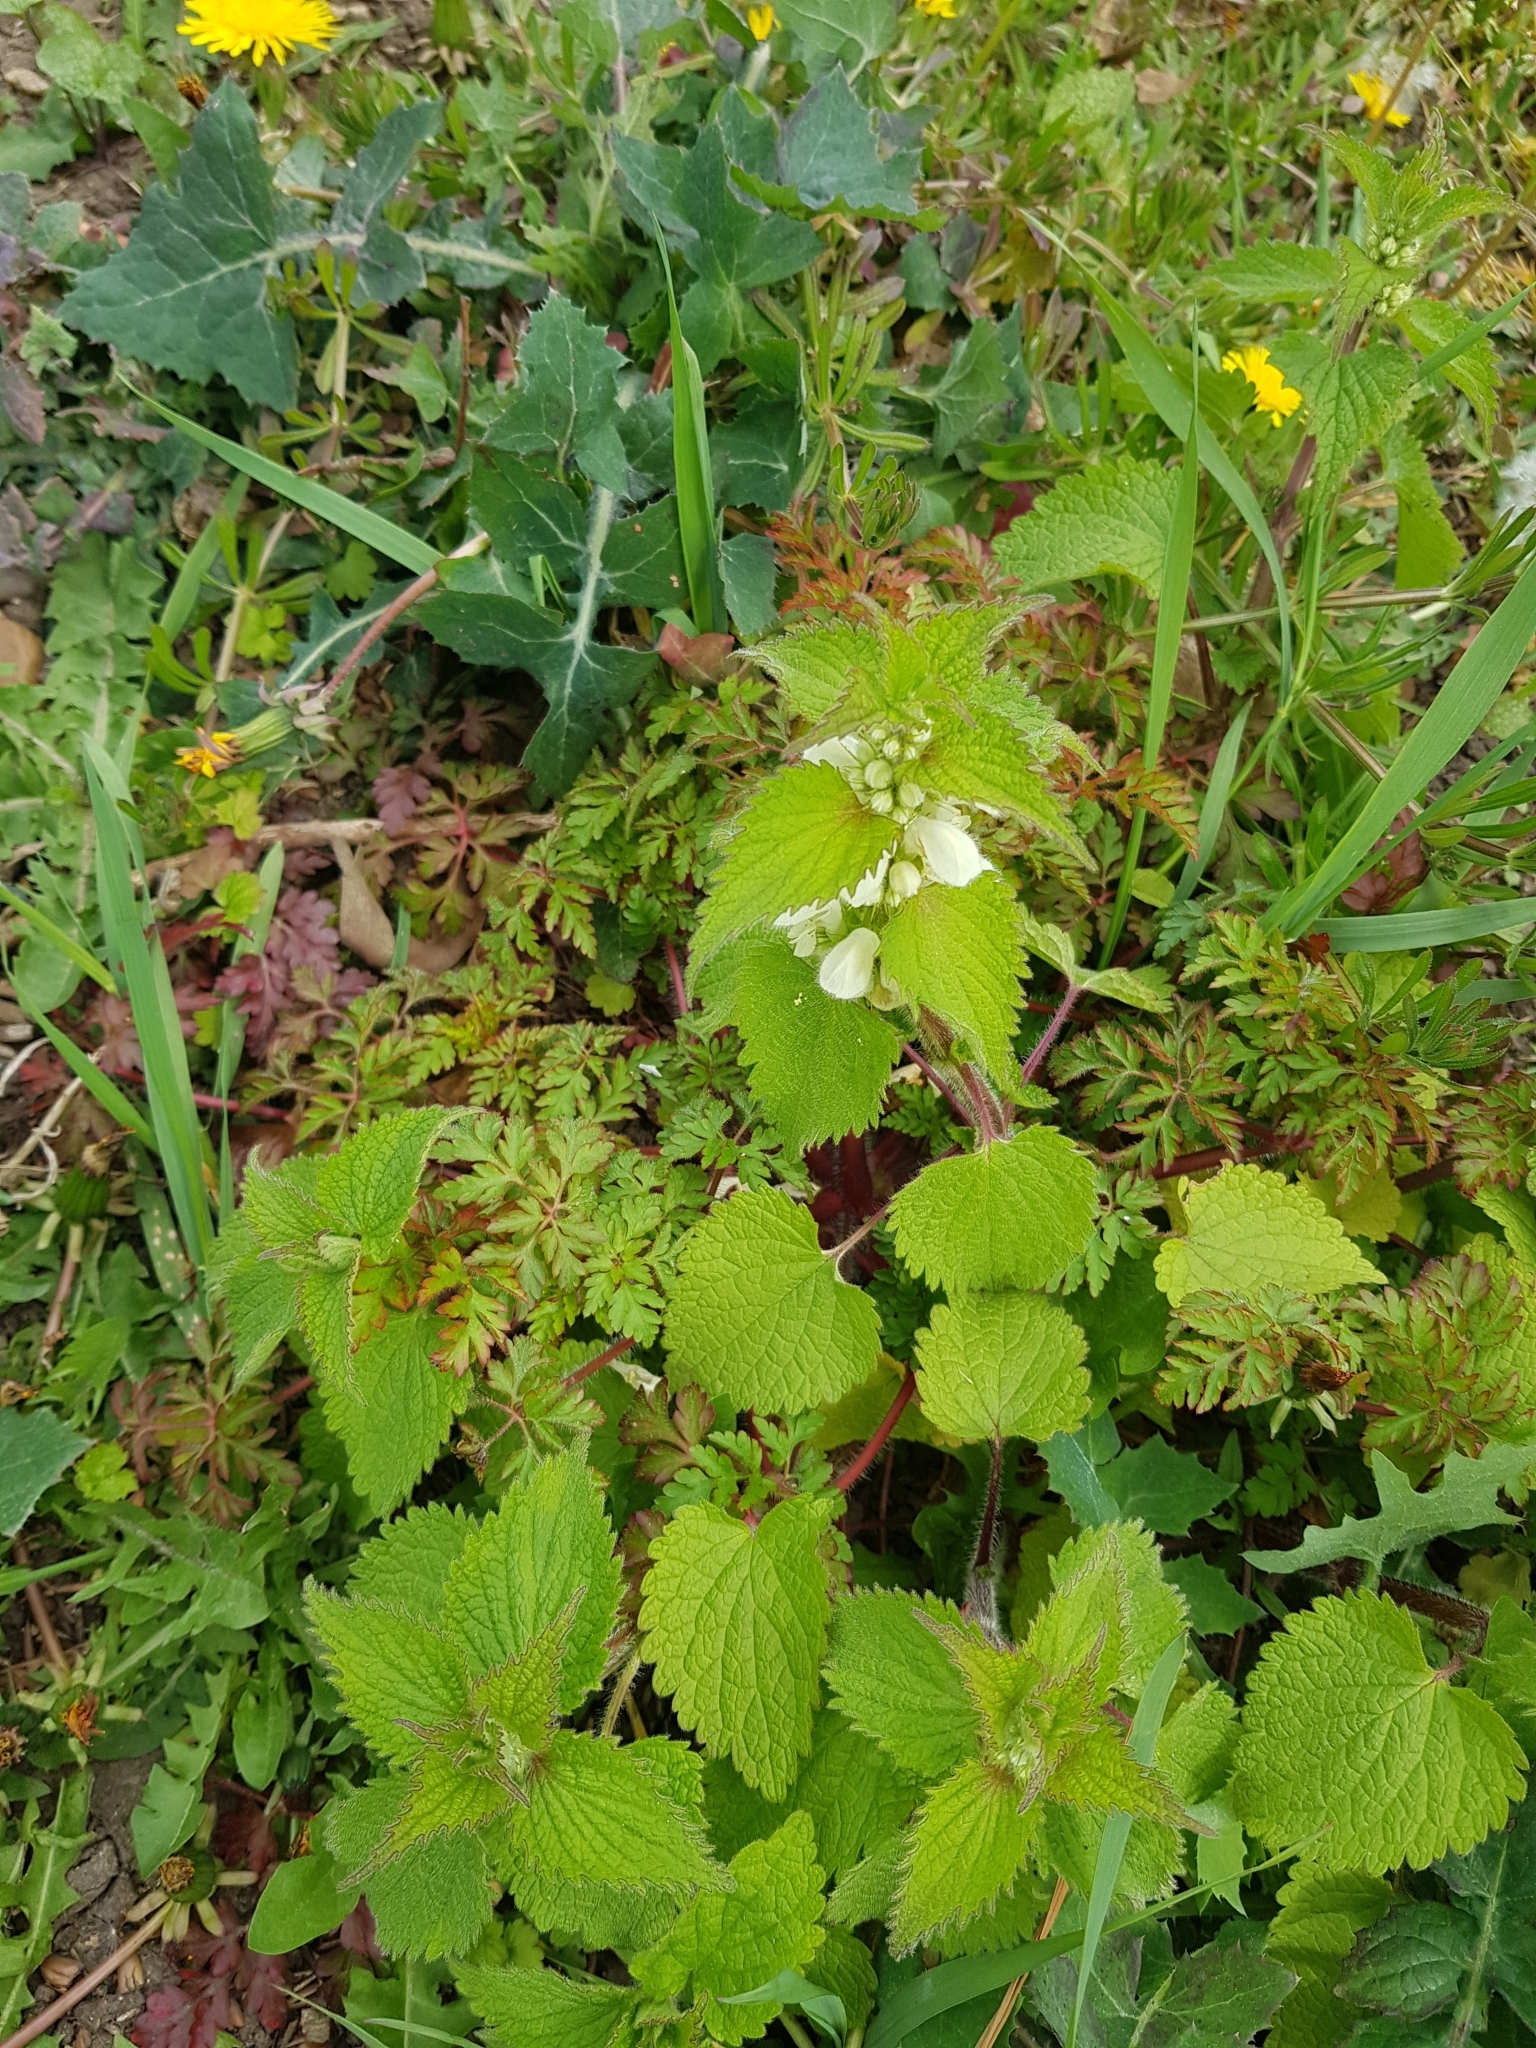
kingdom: Plantae
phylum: Tracheophyta
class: Magnoliopsida
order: Lamiales
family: Lamiaceae
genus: Lamium
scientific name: Lamium album
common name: White dead-nettle
